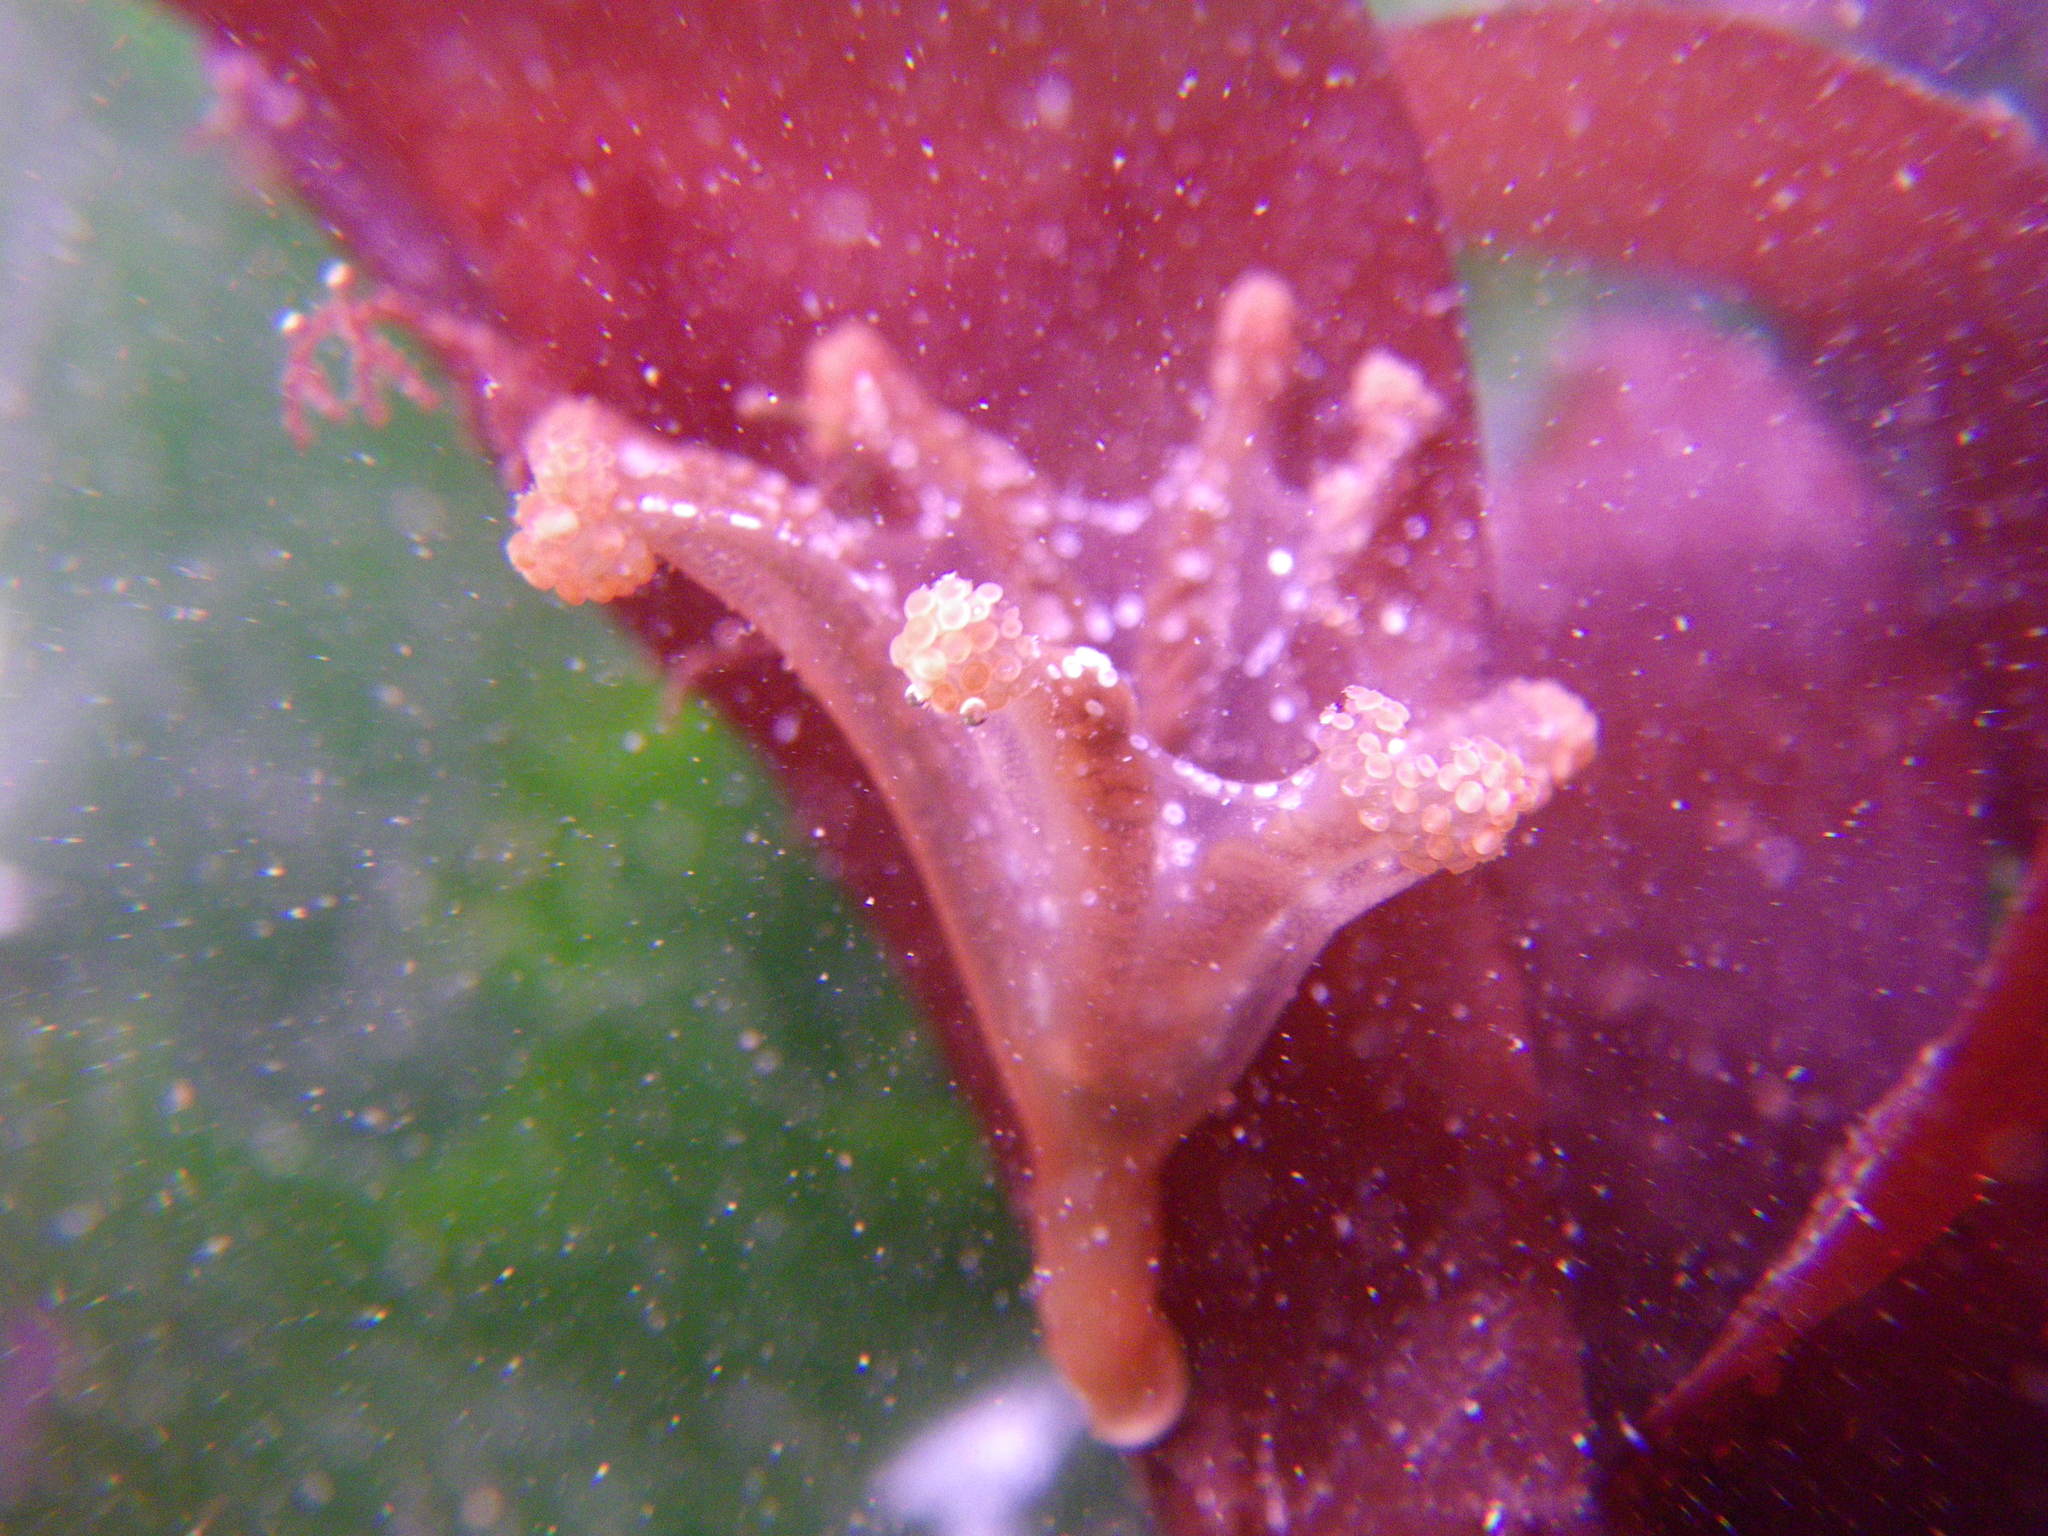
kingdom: Animalia
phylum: Cnidaria
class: Staurozoa
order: Stauromedusae
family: Kishinouyeidae
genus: Calvadosia
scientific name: Calvadosia campanulata
